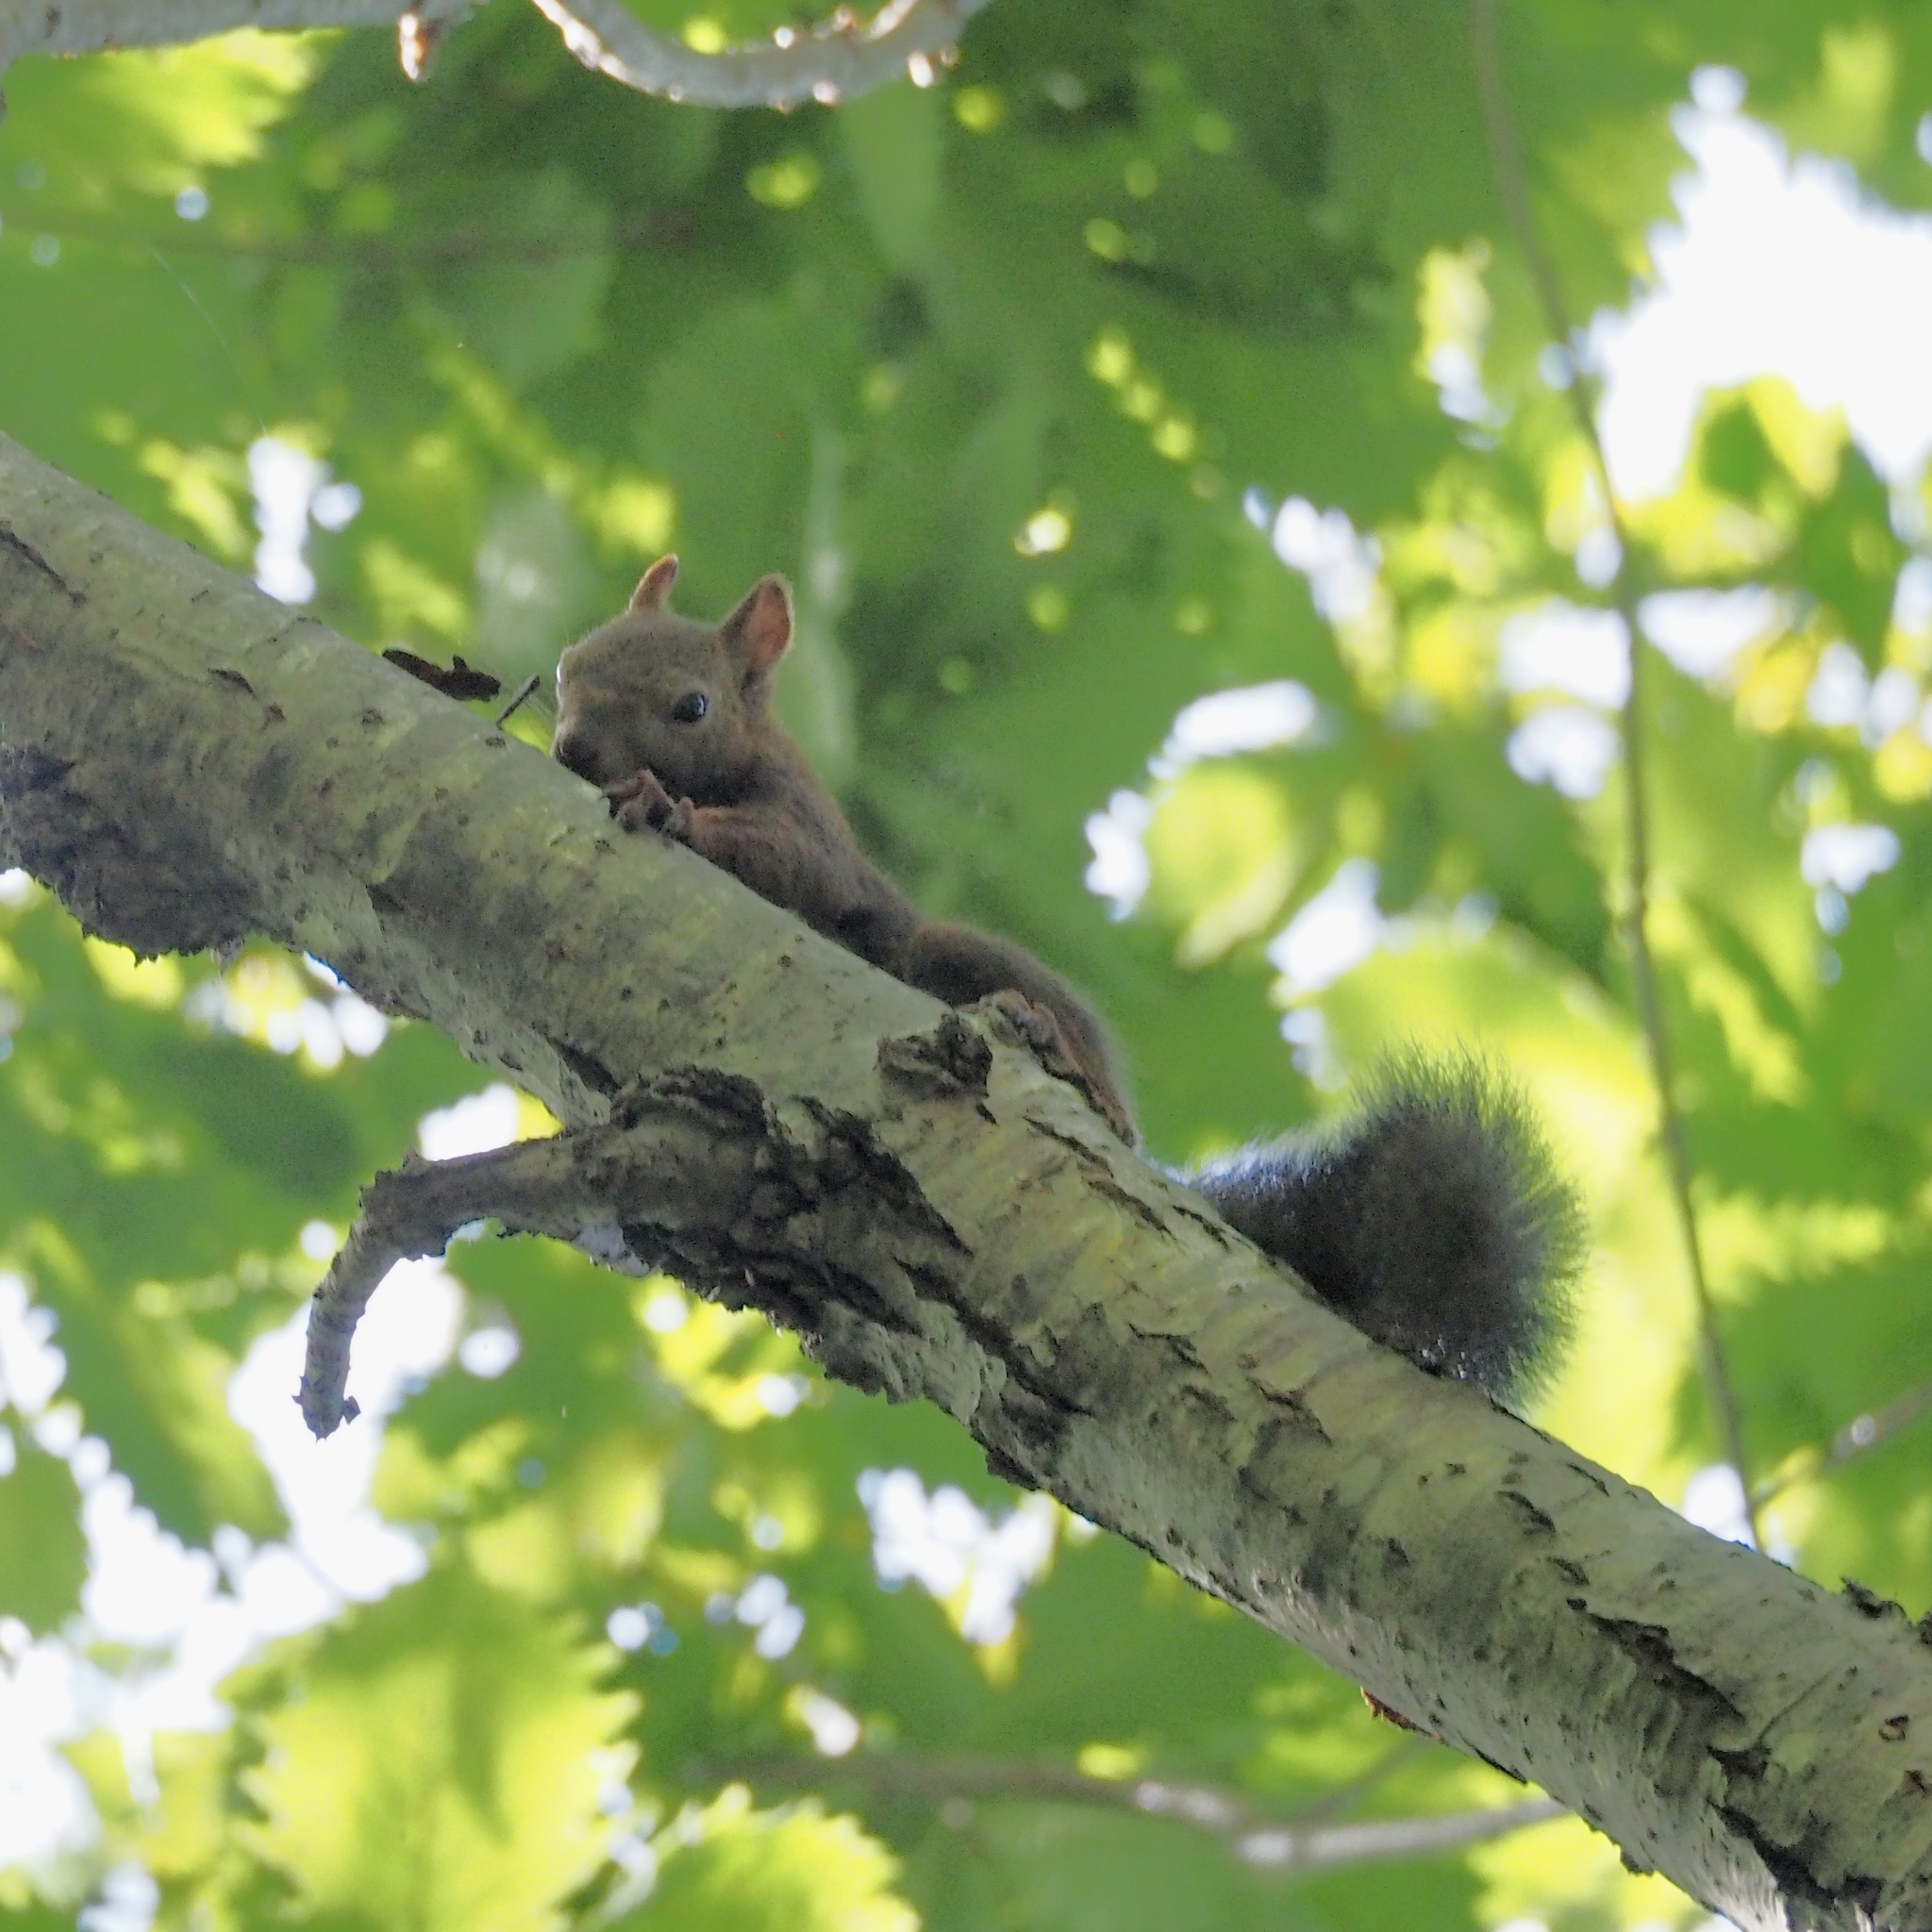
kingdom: Animalia
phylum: Chordata
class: Mammalia
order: Rodentia
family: Sciuridae
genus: Sciurus
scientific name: Sciurus vulgaris
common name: Eurasian red squirrel
